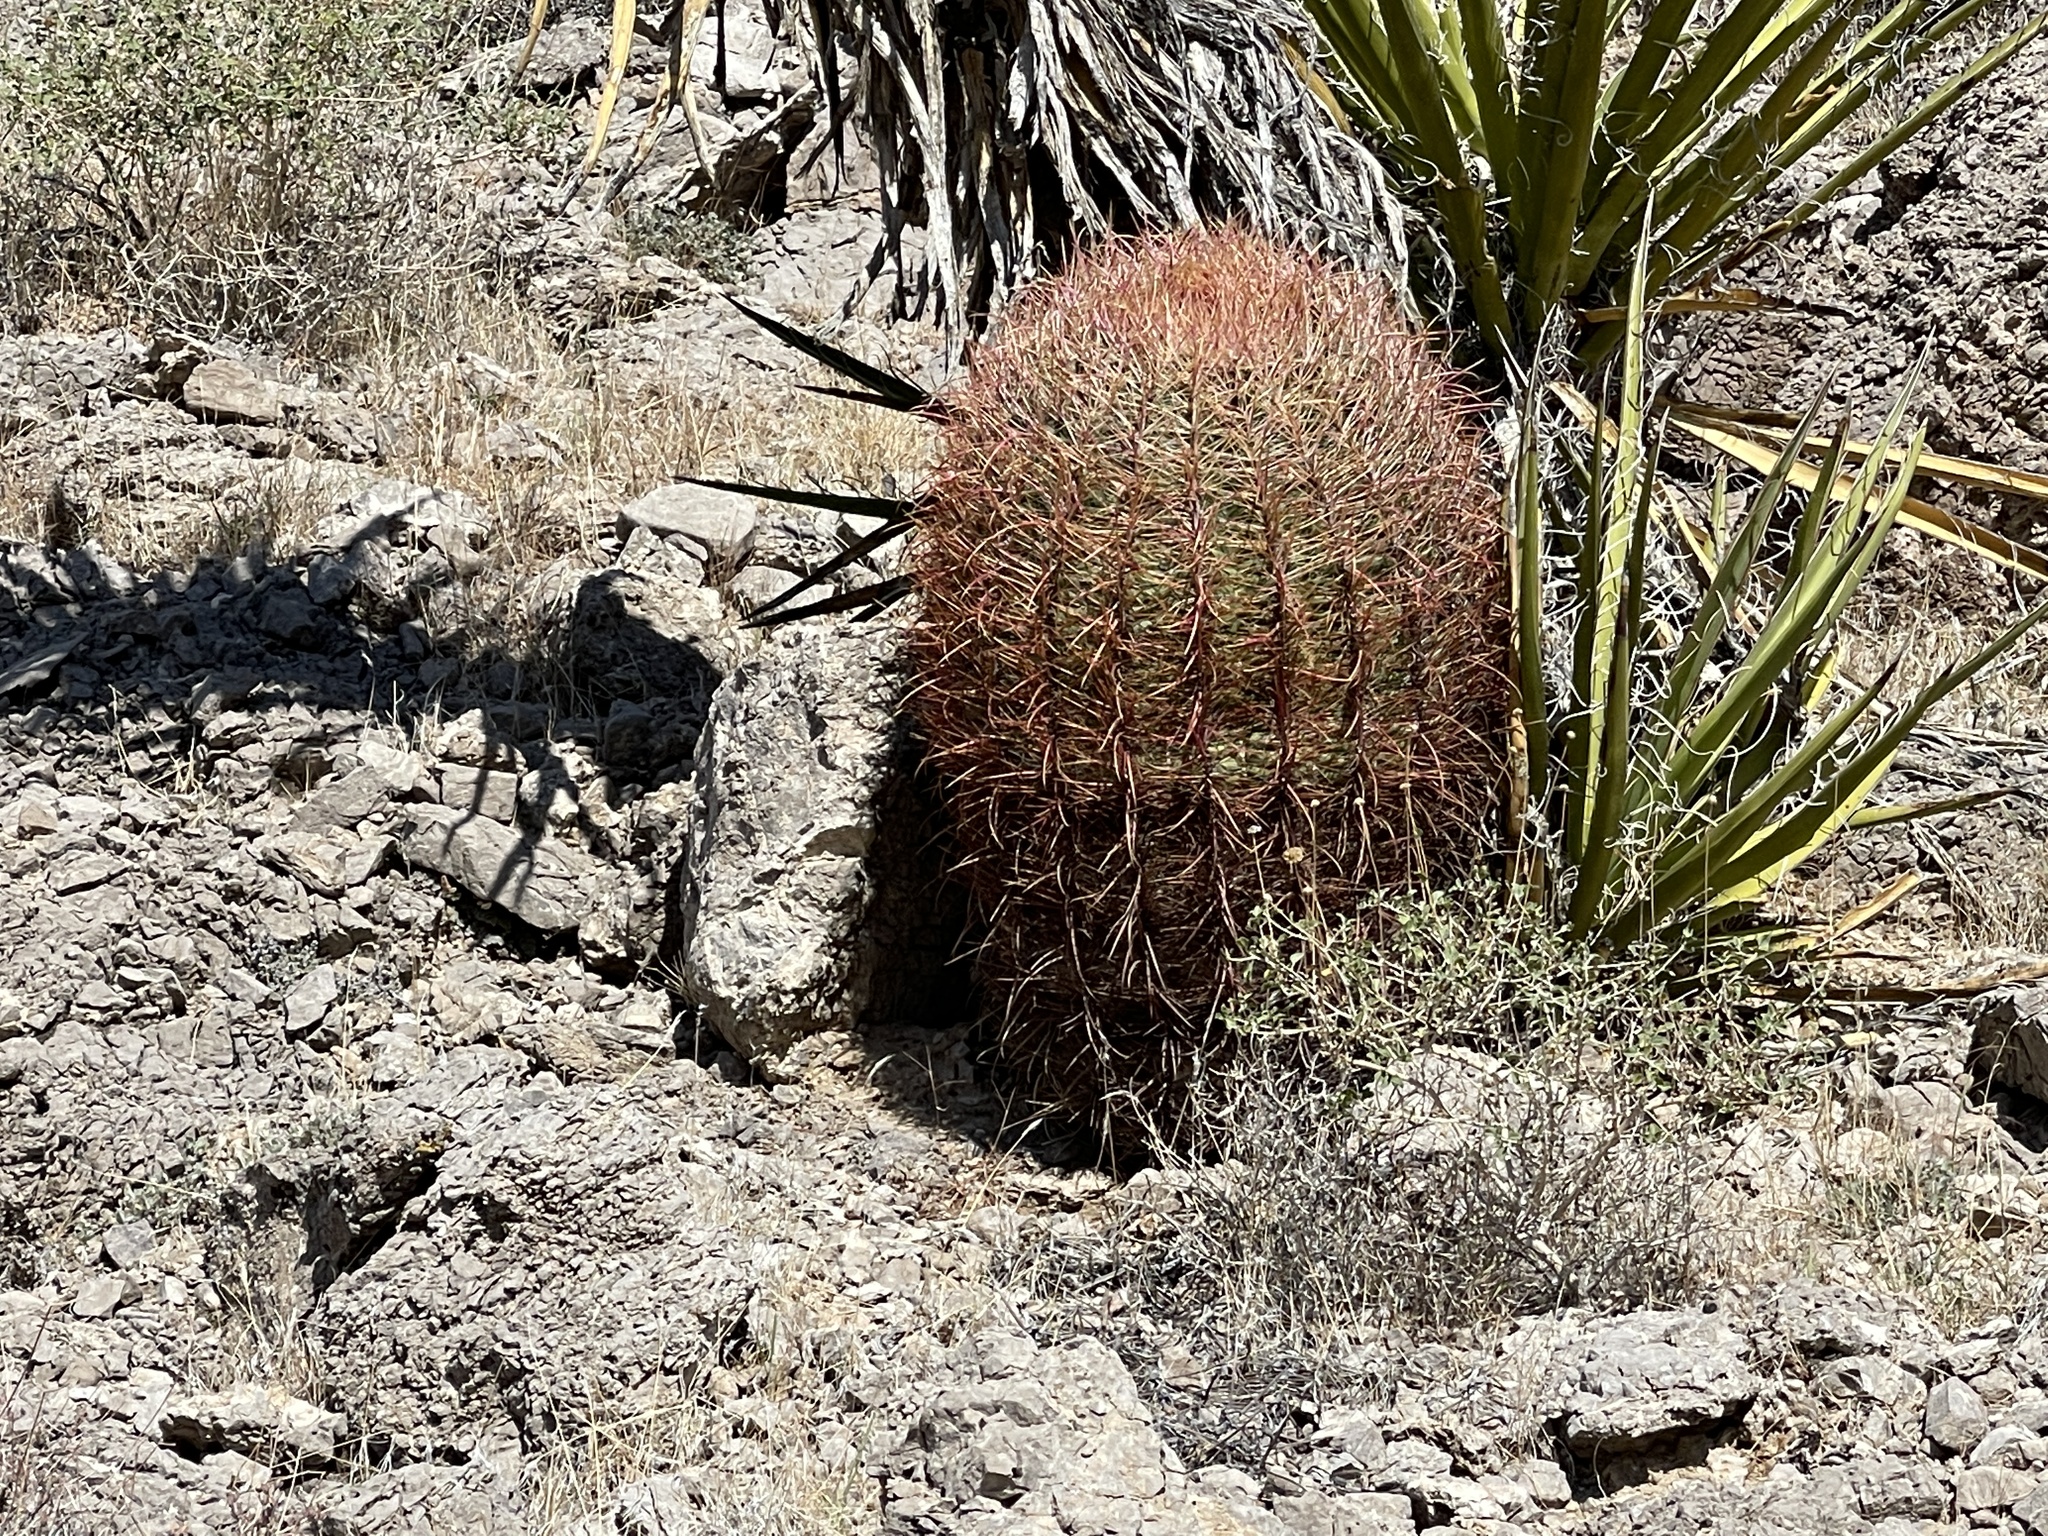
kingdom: Plantae
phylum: Tracheophyta
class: Magnoliopsida
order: Caryophyllales
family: Cactaceae
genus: Ferocactus
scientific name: Ferocactus cylindraceus
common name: California barrel cactus
